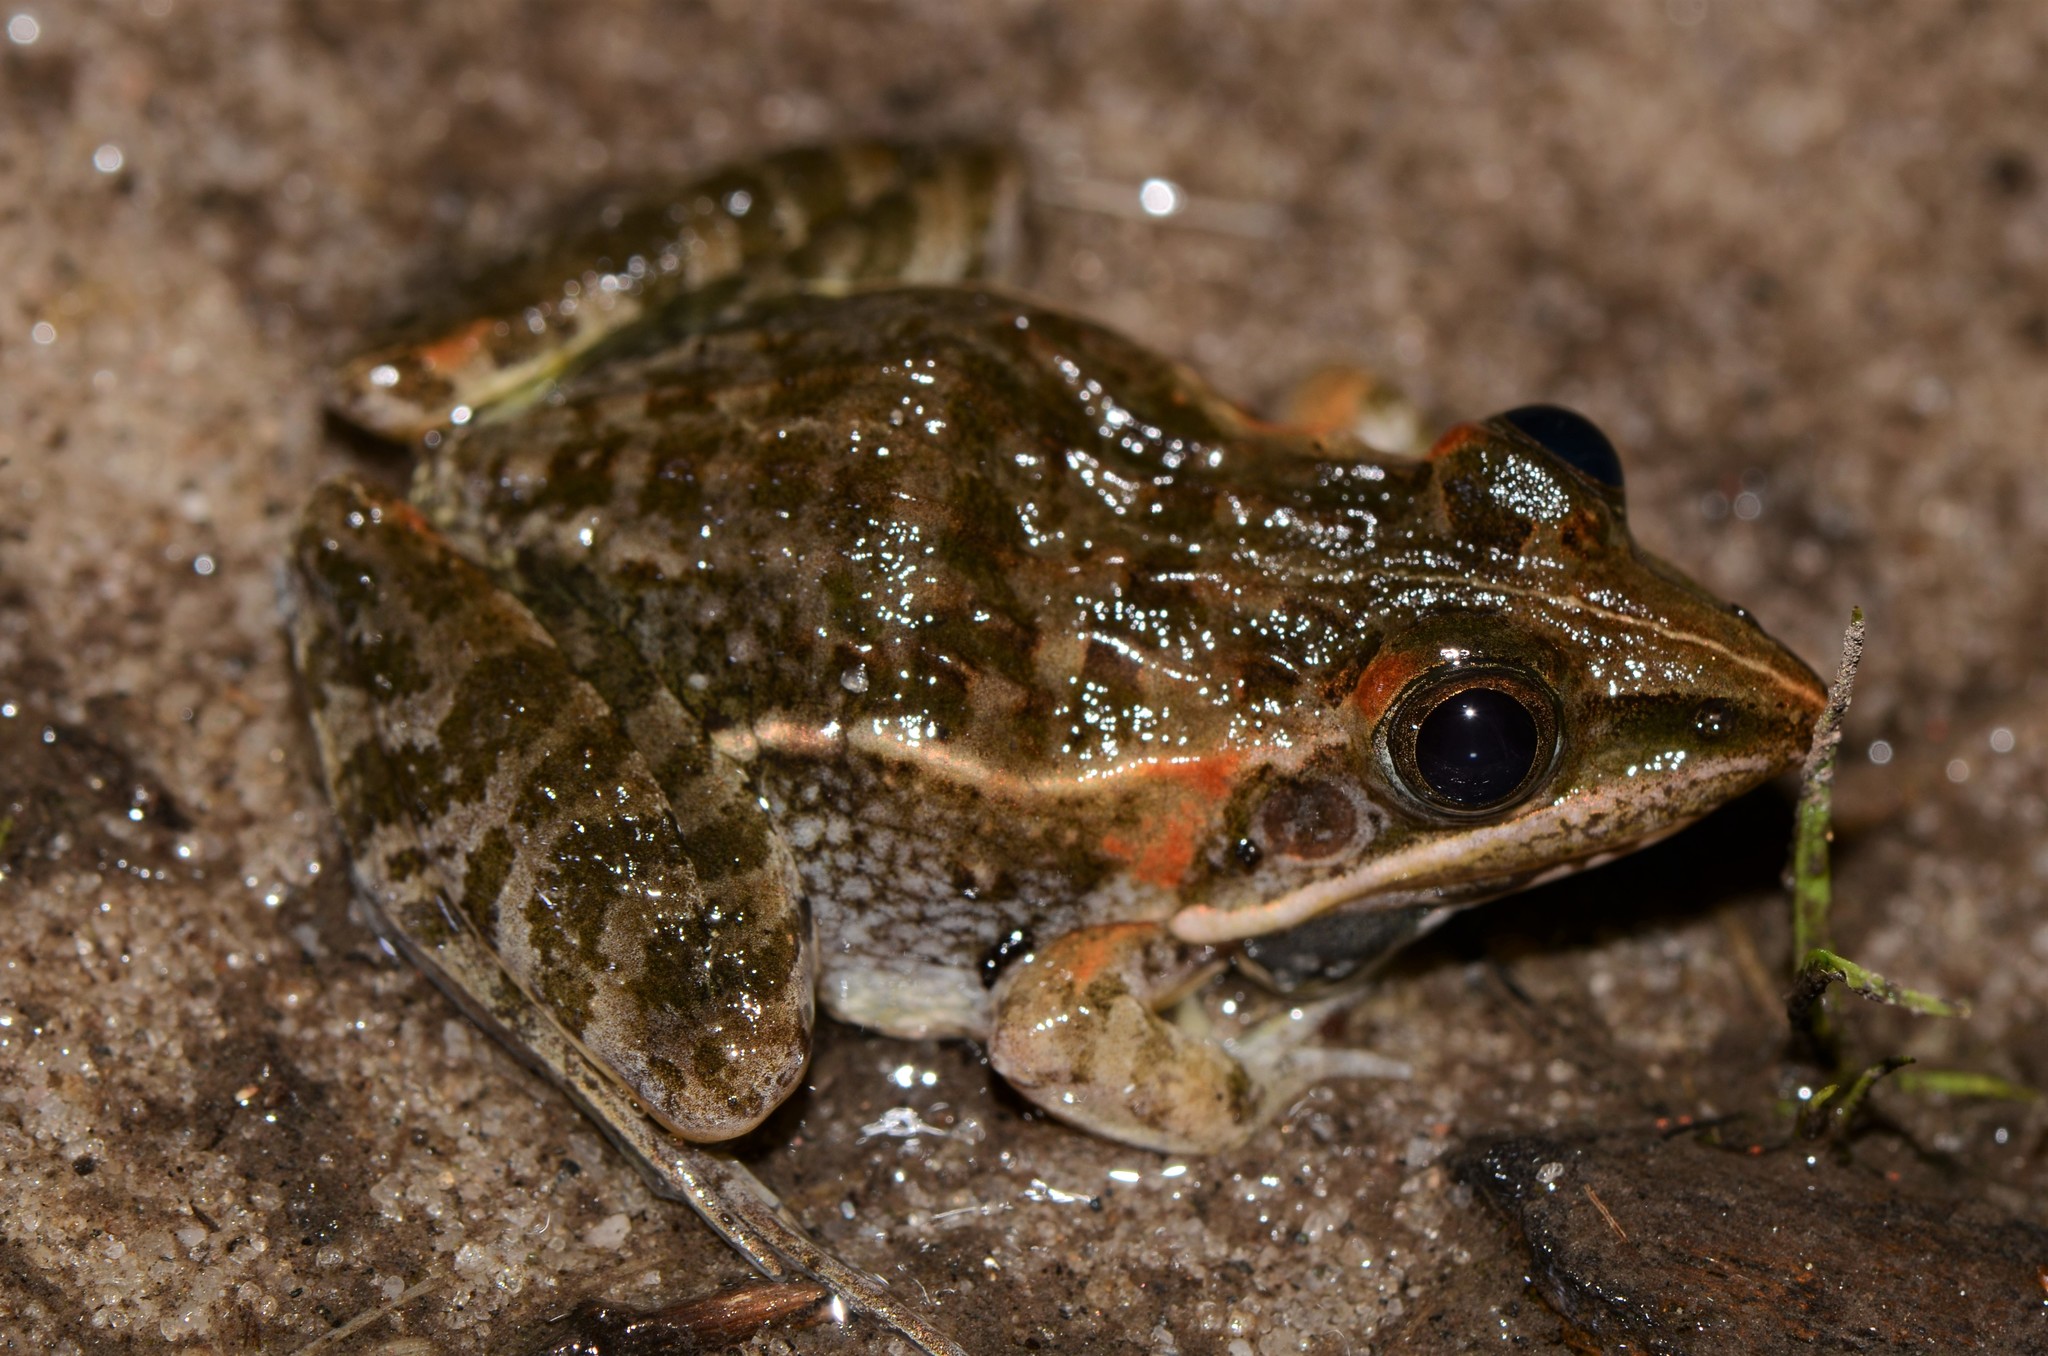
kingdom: Animalia
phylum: Chordata
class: Amphibia
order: Anura
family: Ptychadenidae
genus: Ptychadena
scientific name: Ptychadena taenioscelis
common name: Lukula grassland frog
